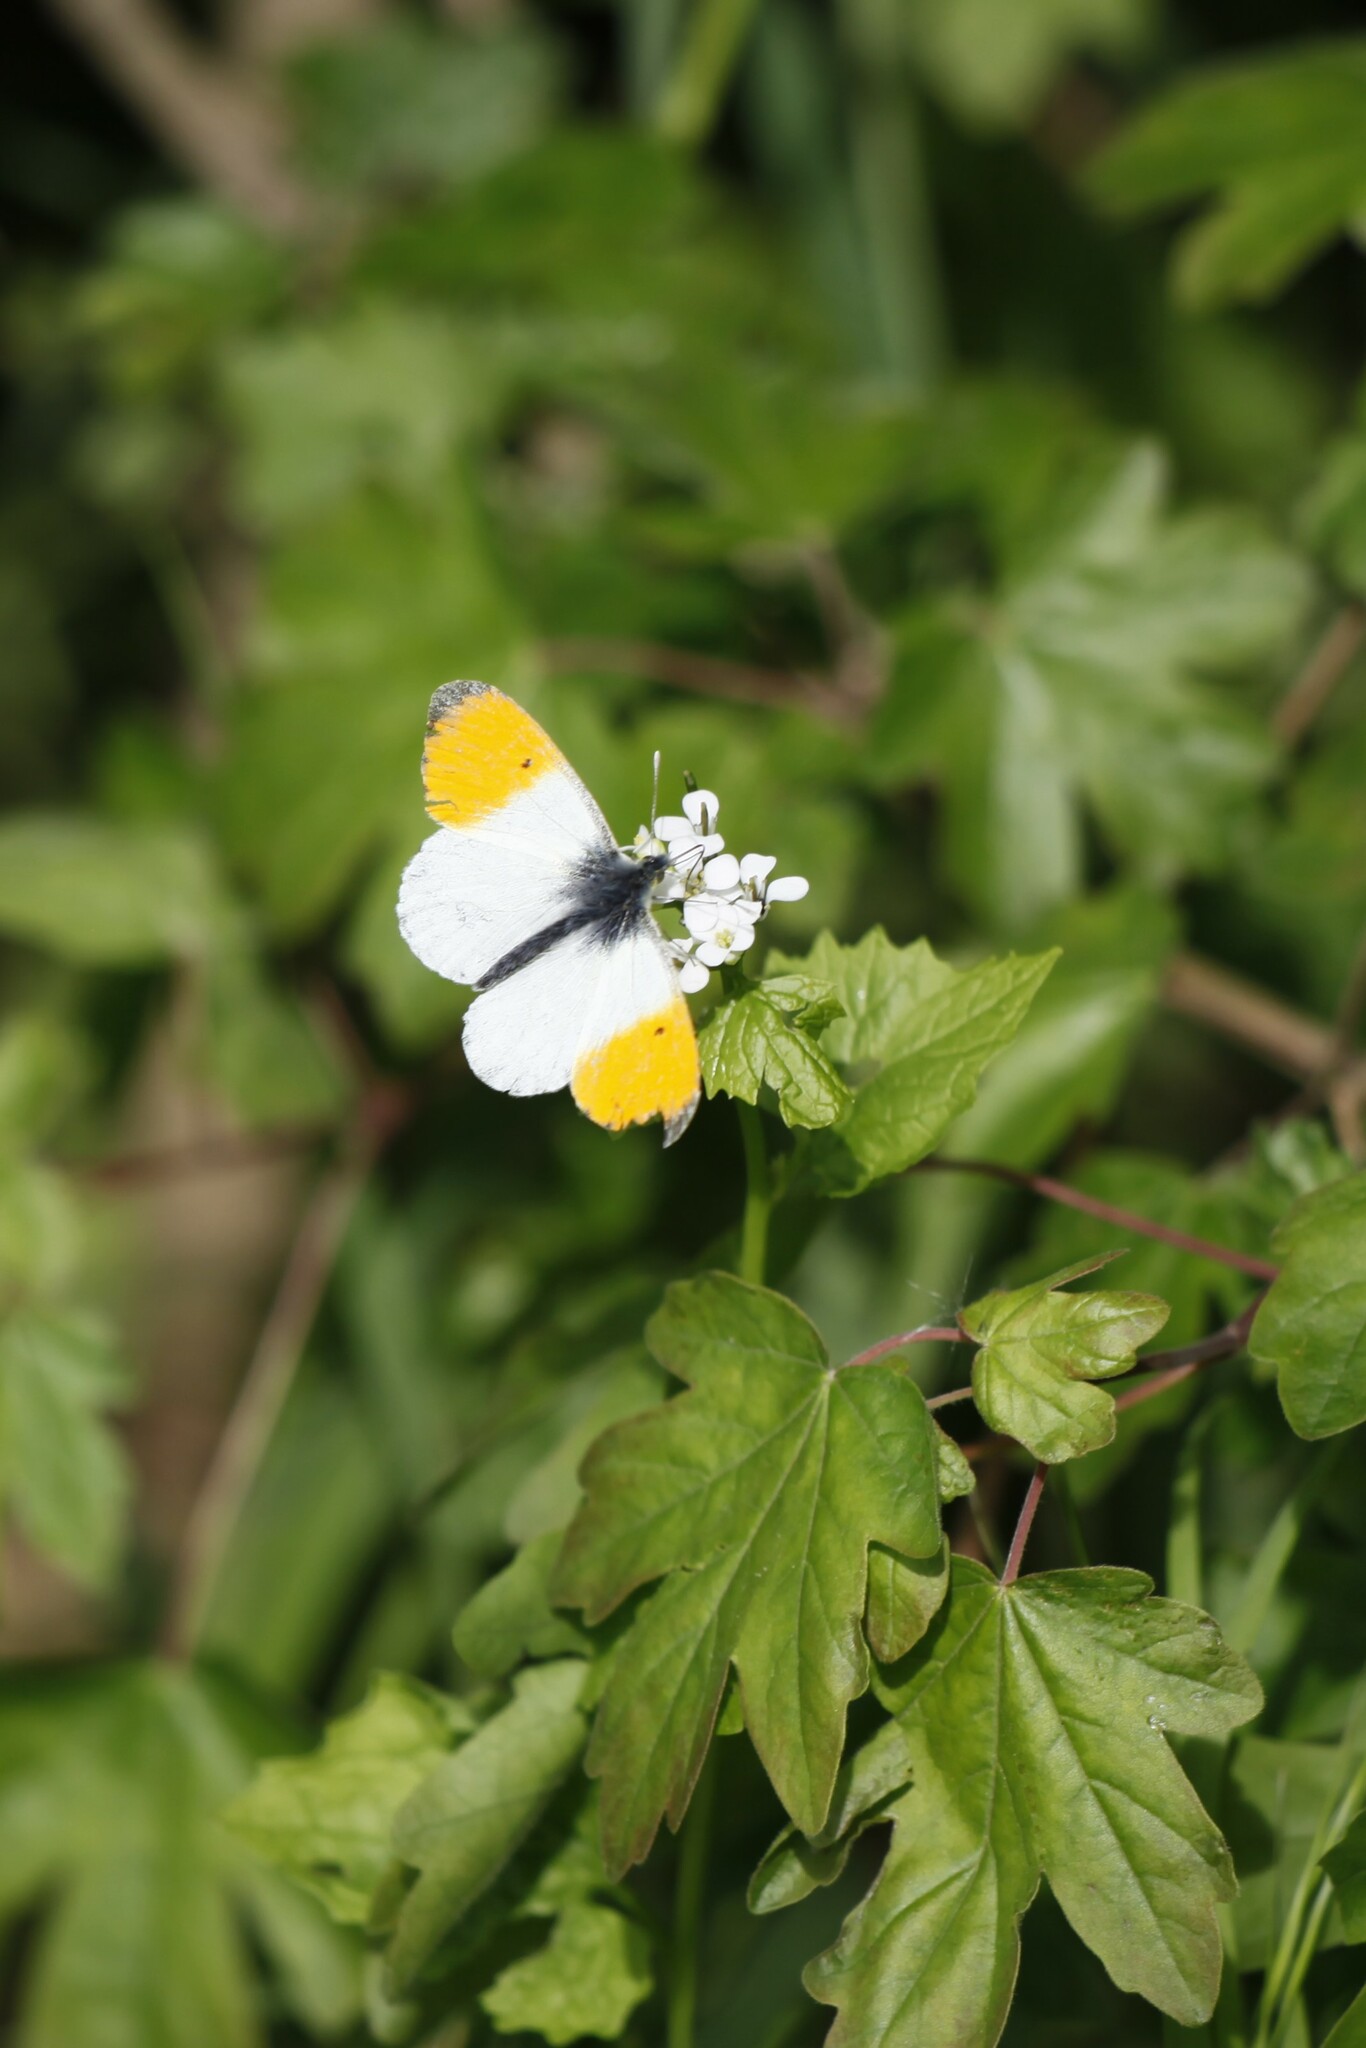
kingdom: Animalia
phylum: Arthropoda
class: Insecta
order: Lepidoptera
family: Pieridae
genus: Anthocharis
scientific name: Anthocharis cardamines
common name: Orange-tip
